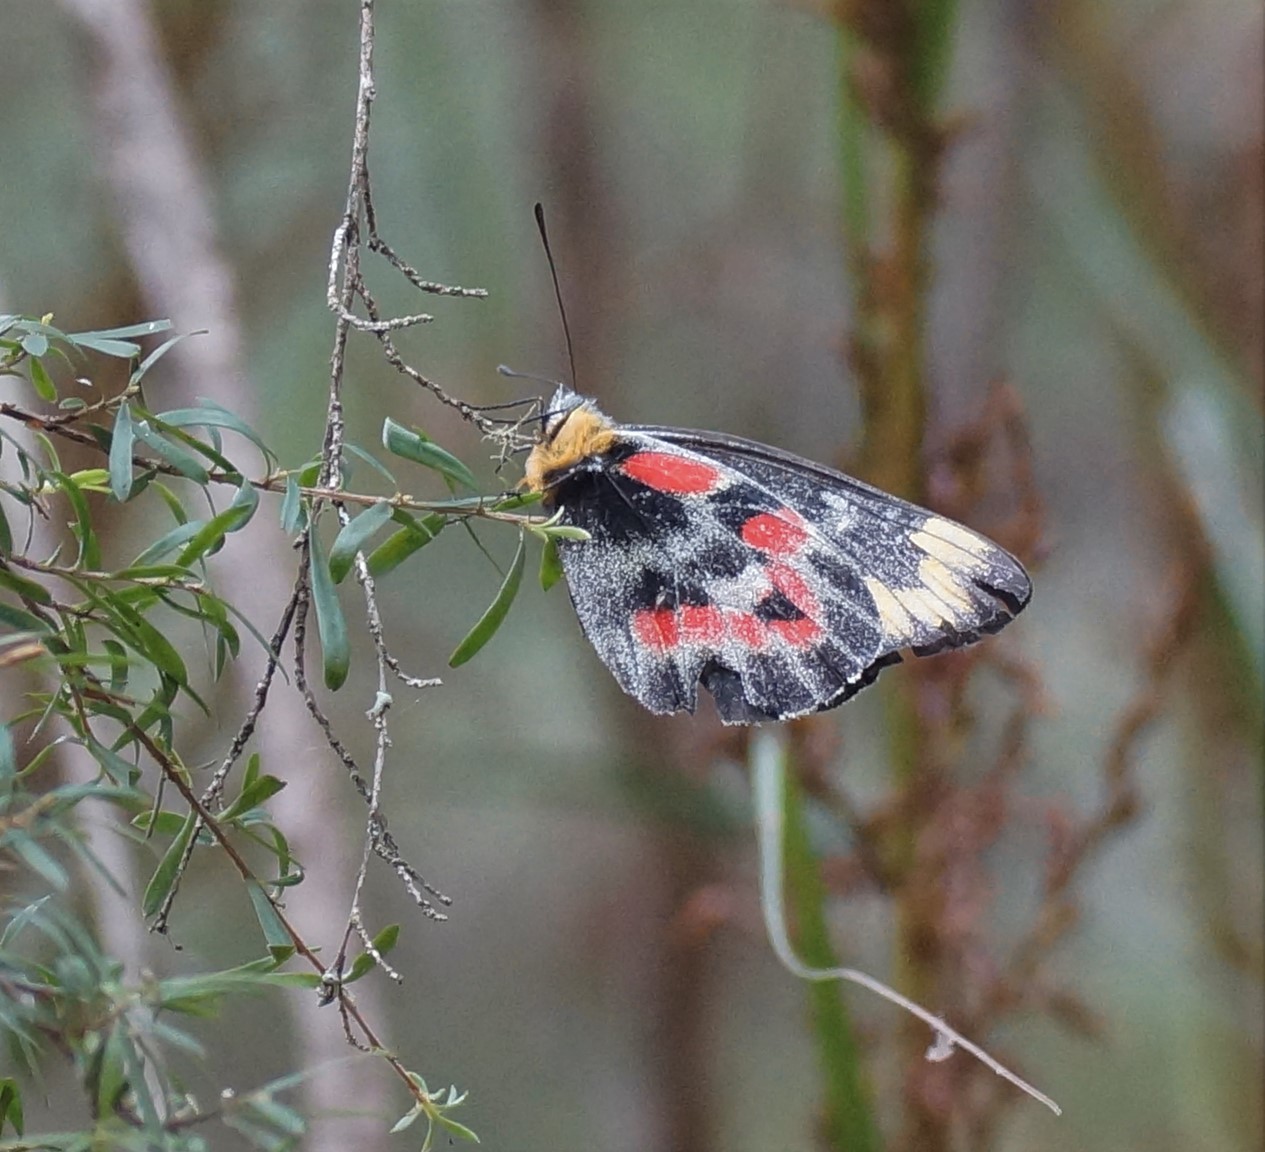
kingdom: Animalia
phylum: Arthropoda
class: Insecta
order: Lepidoptera
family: Pieridae
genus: Delias
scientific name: Delias harpalyce
